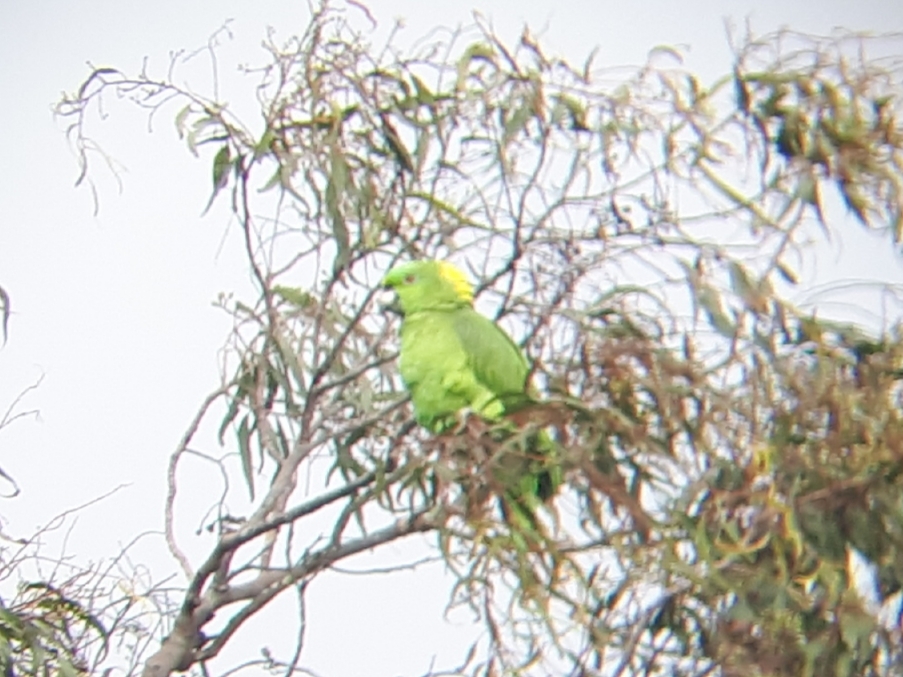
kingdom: Animalia
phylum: Chordata
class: Aves
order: Psittaciformes
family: Psittacidae
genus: Amazona
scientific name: Amazona auropalliata
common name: Yellow-naped amazon
